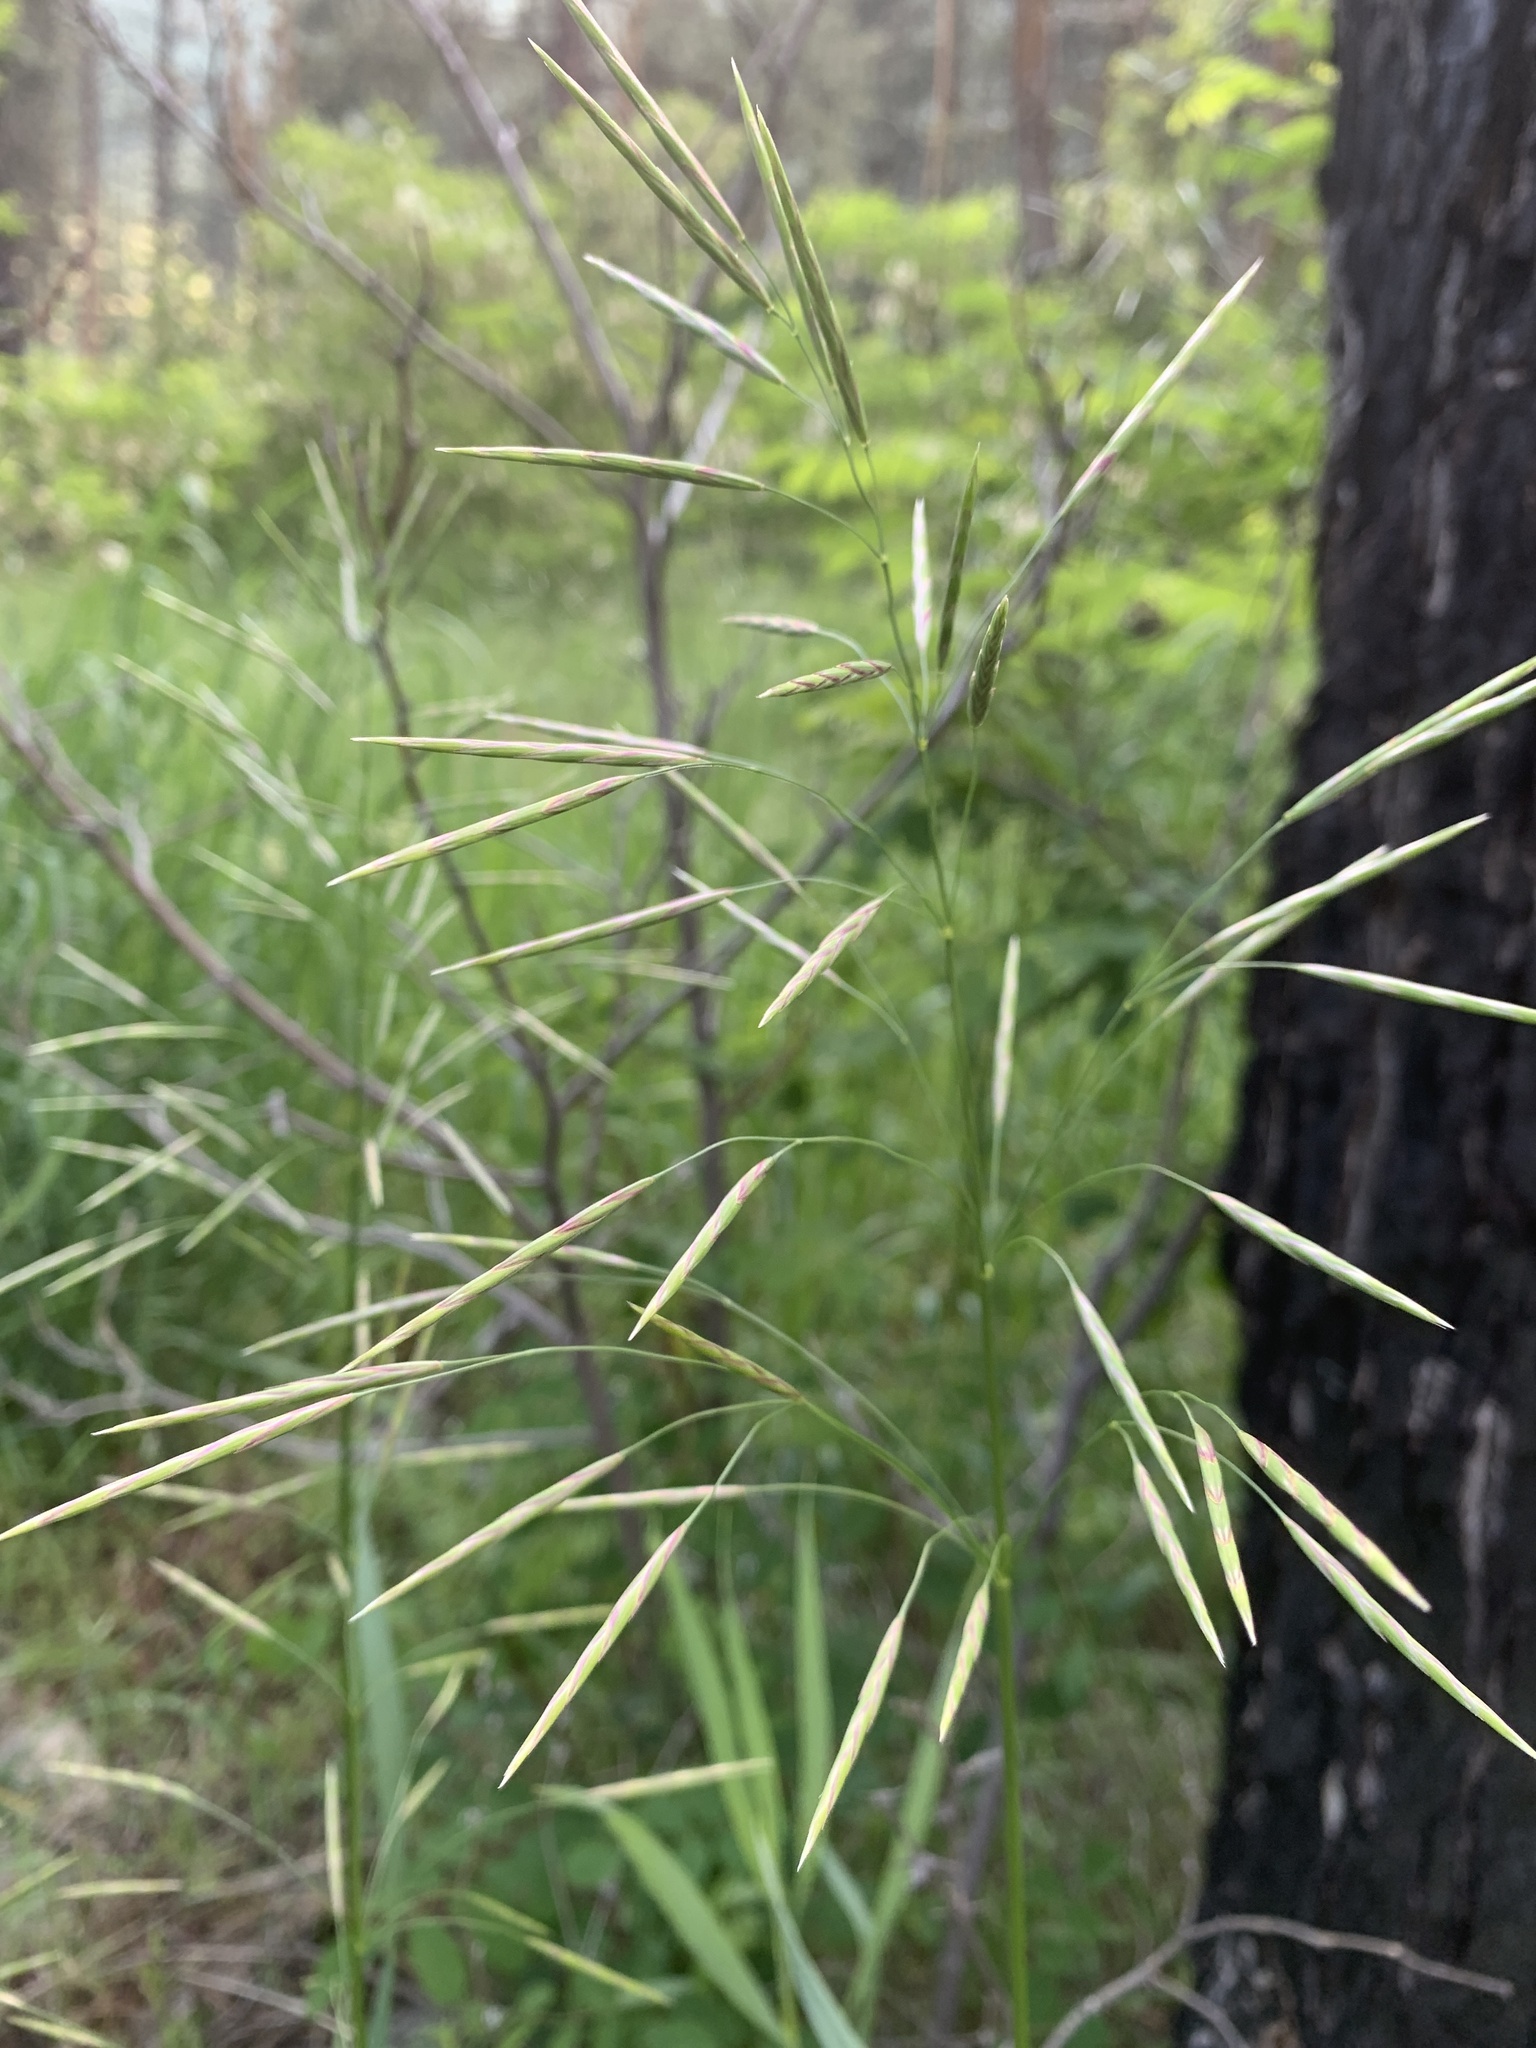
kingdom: Plantae
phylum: Tracheophyta
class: Liliopsida
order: Poales
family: Poaceae
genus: Bromus
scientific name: Bromus inermis
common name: Smooth brome
